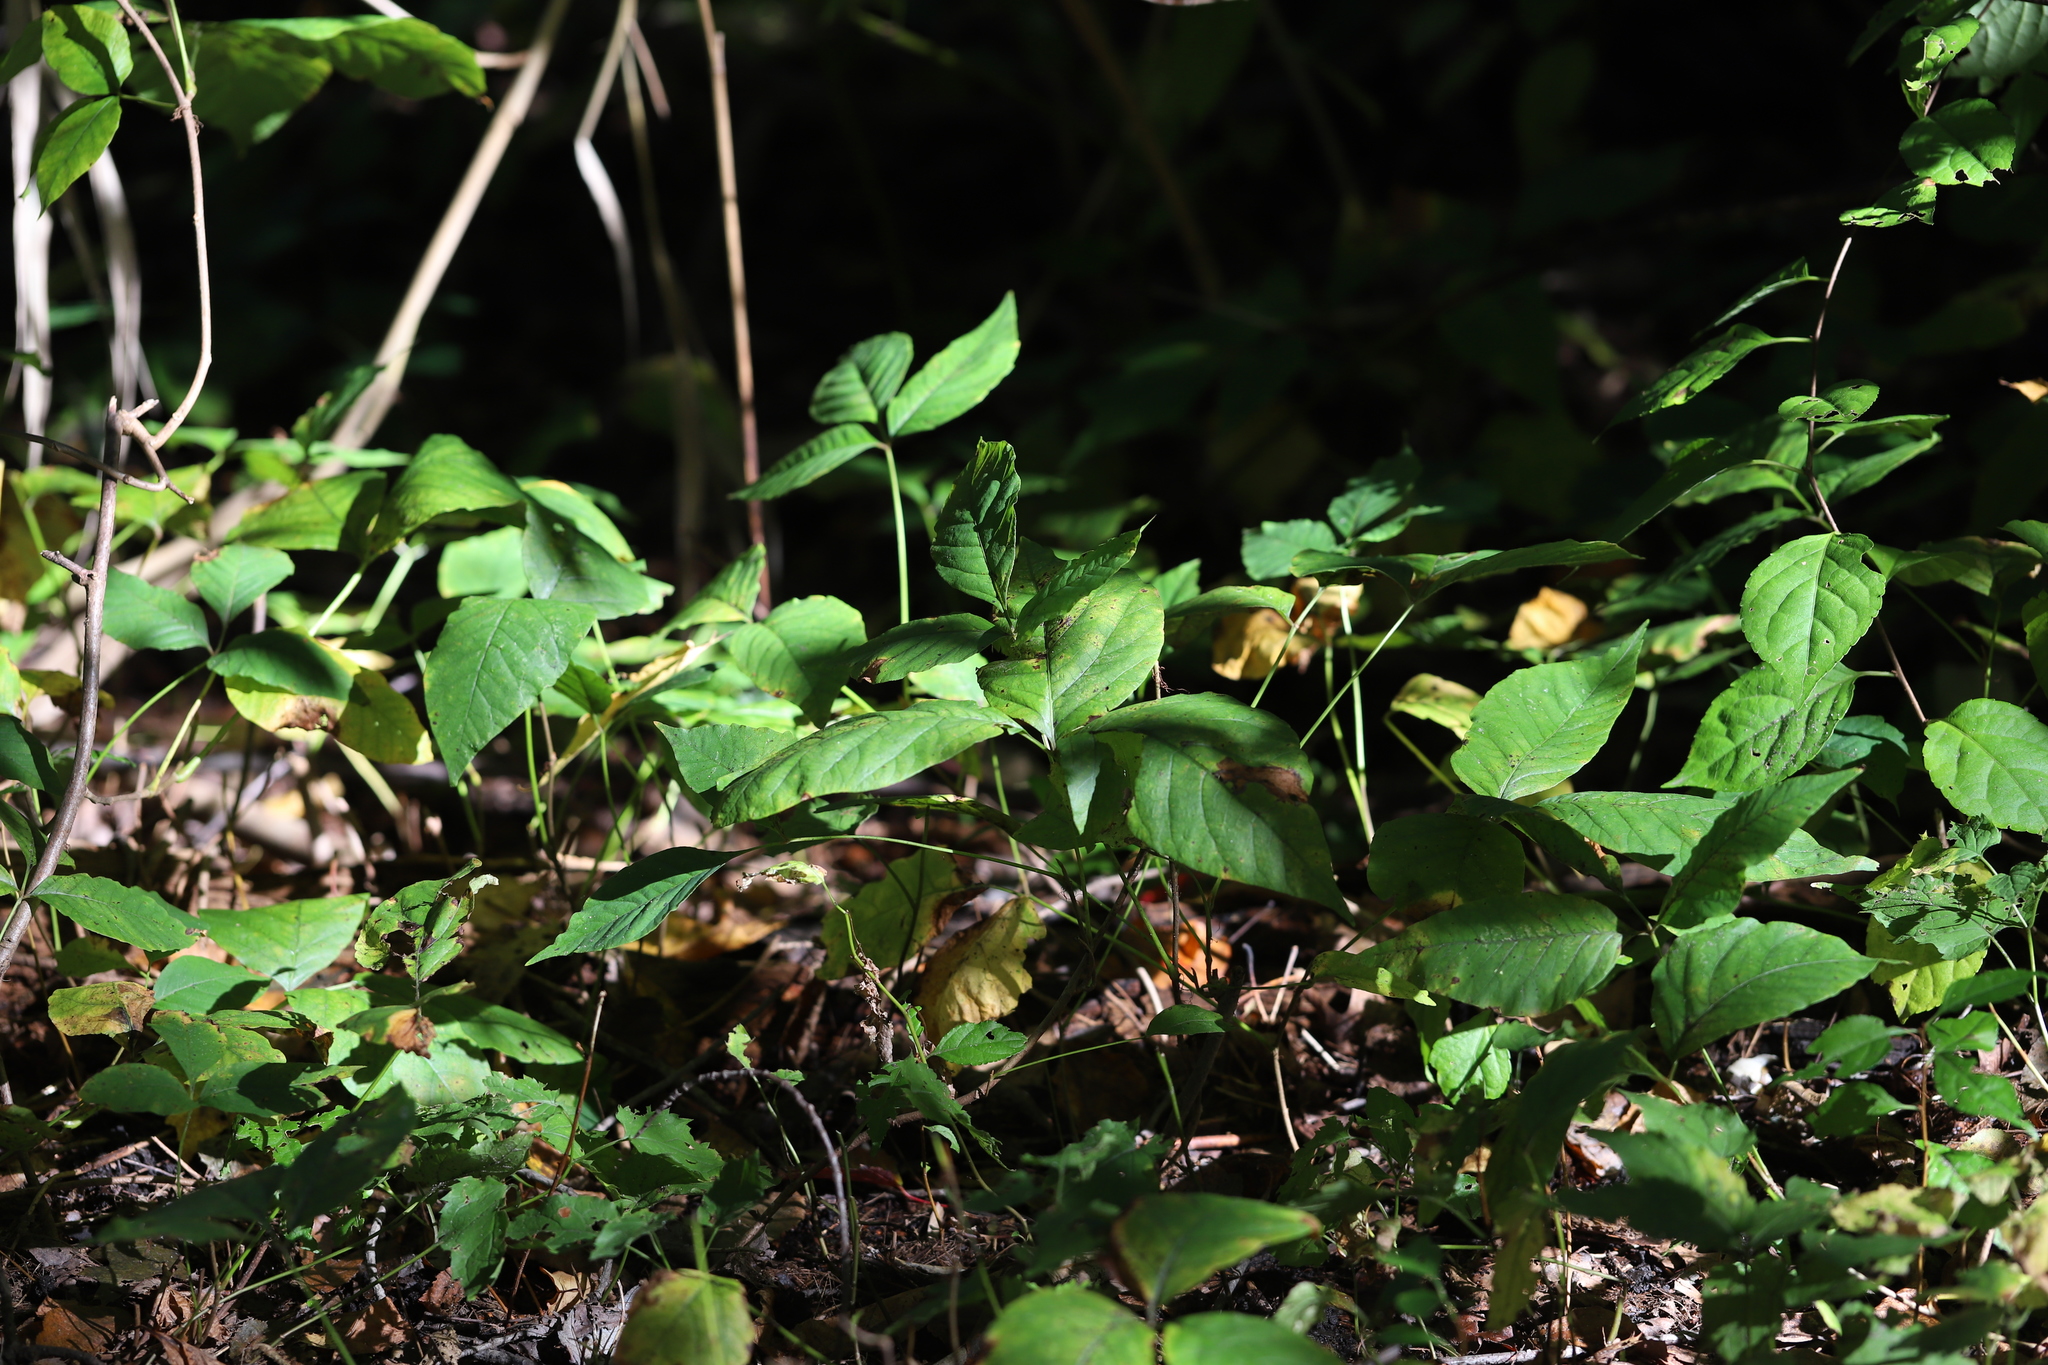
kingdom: Plantae
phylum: Tracheophyta
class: Magnoliopsida
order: Sapindales
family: Anacardiaceae
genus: Toxicodendron
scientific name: Toxicodendron radicans
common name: Poison ivy
